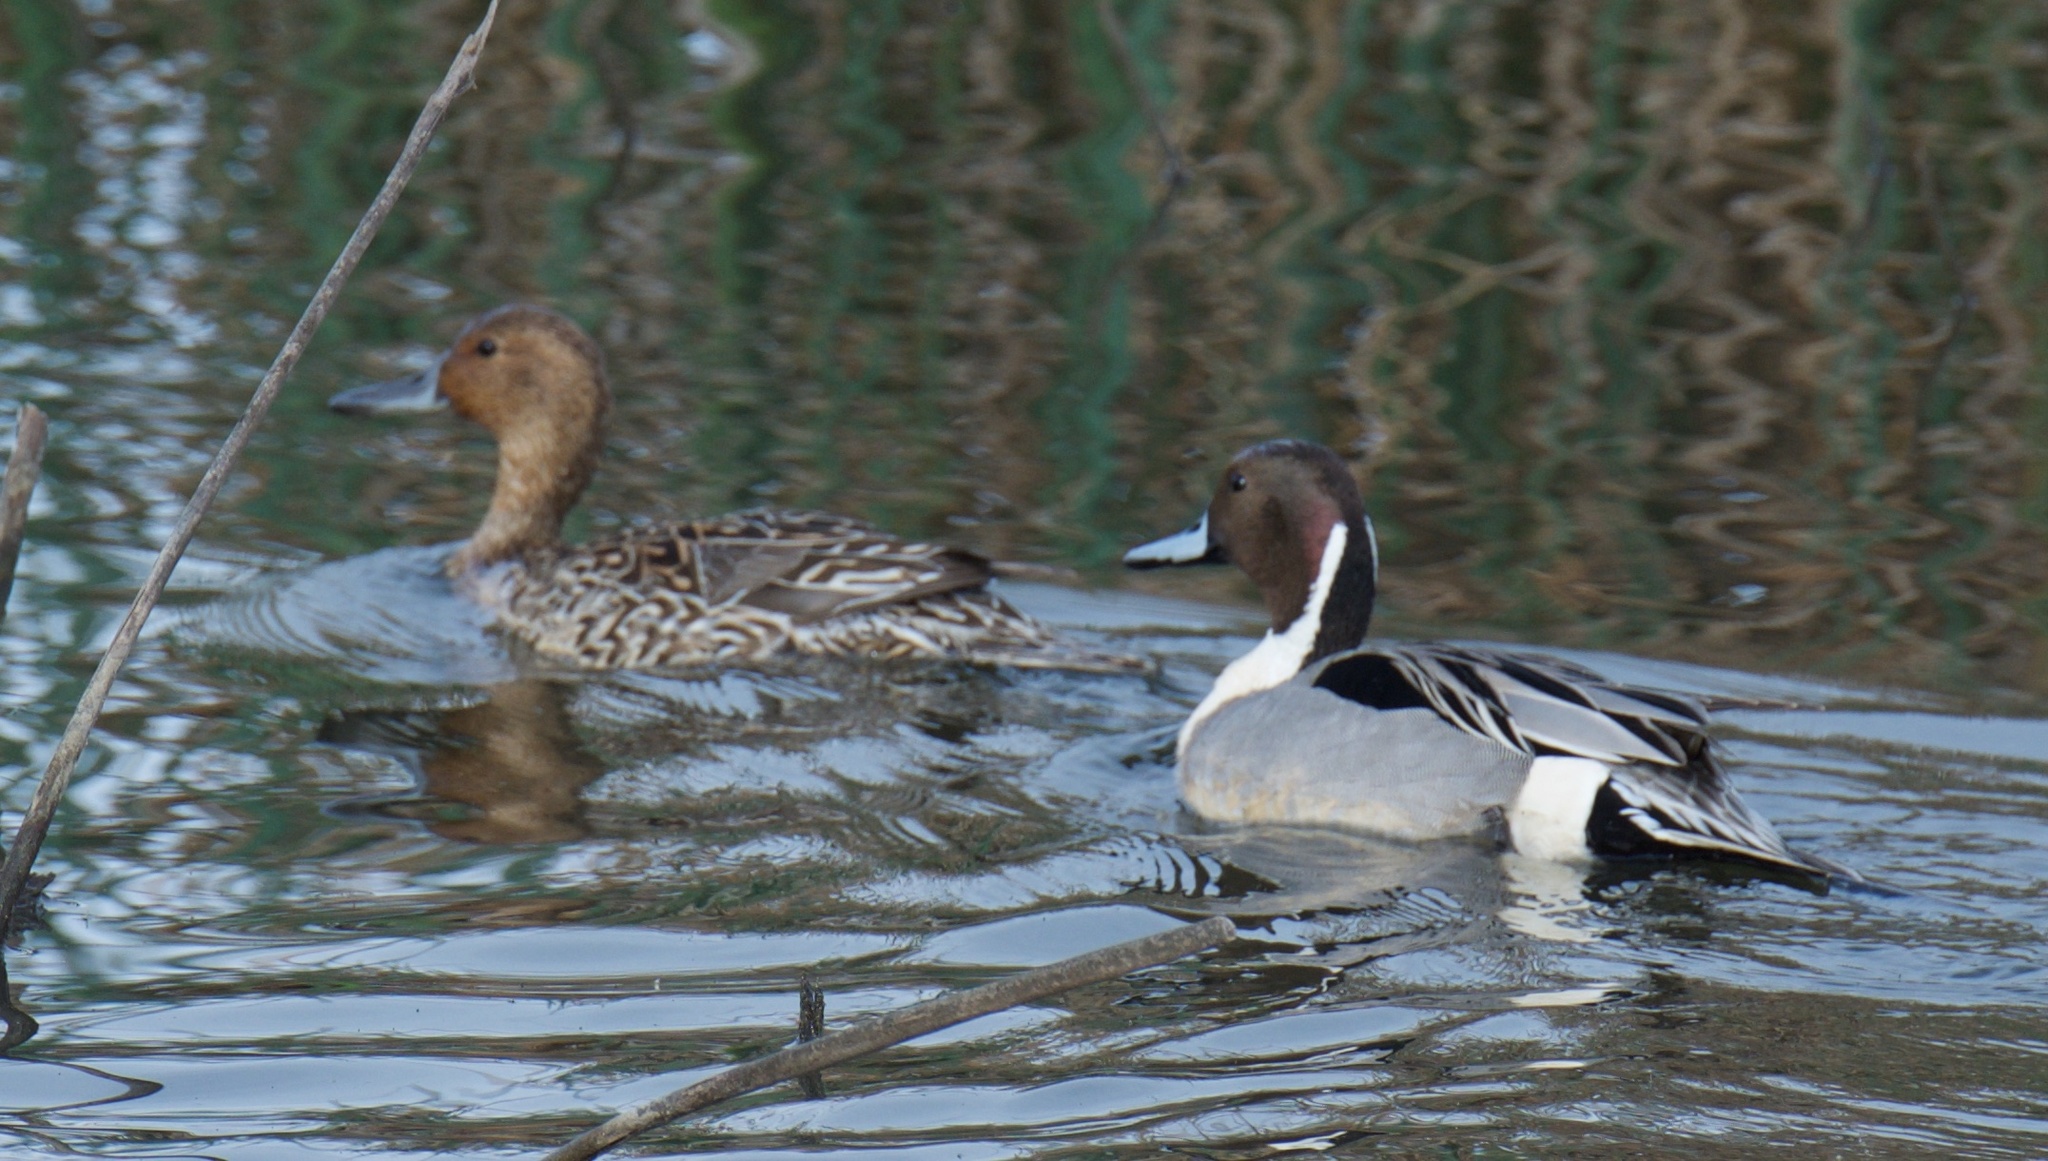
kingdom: Animalia
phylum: Chordata
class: Aves
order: Anseriformes
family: Anatidae
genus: Anas
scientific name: Anas acuta
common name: Northern pintail
